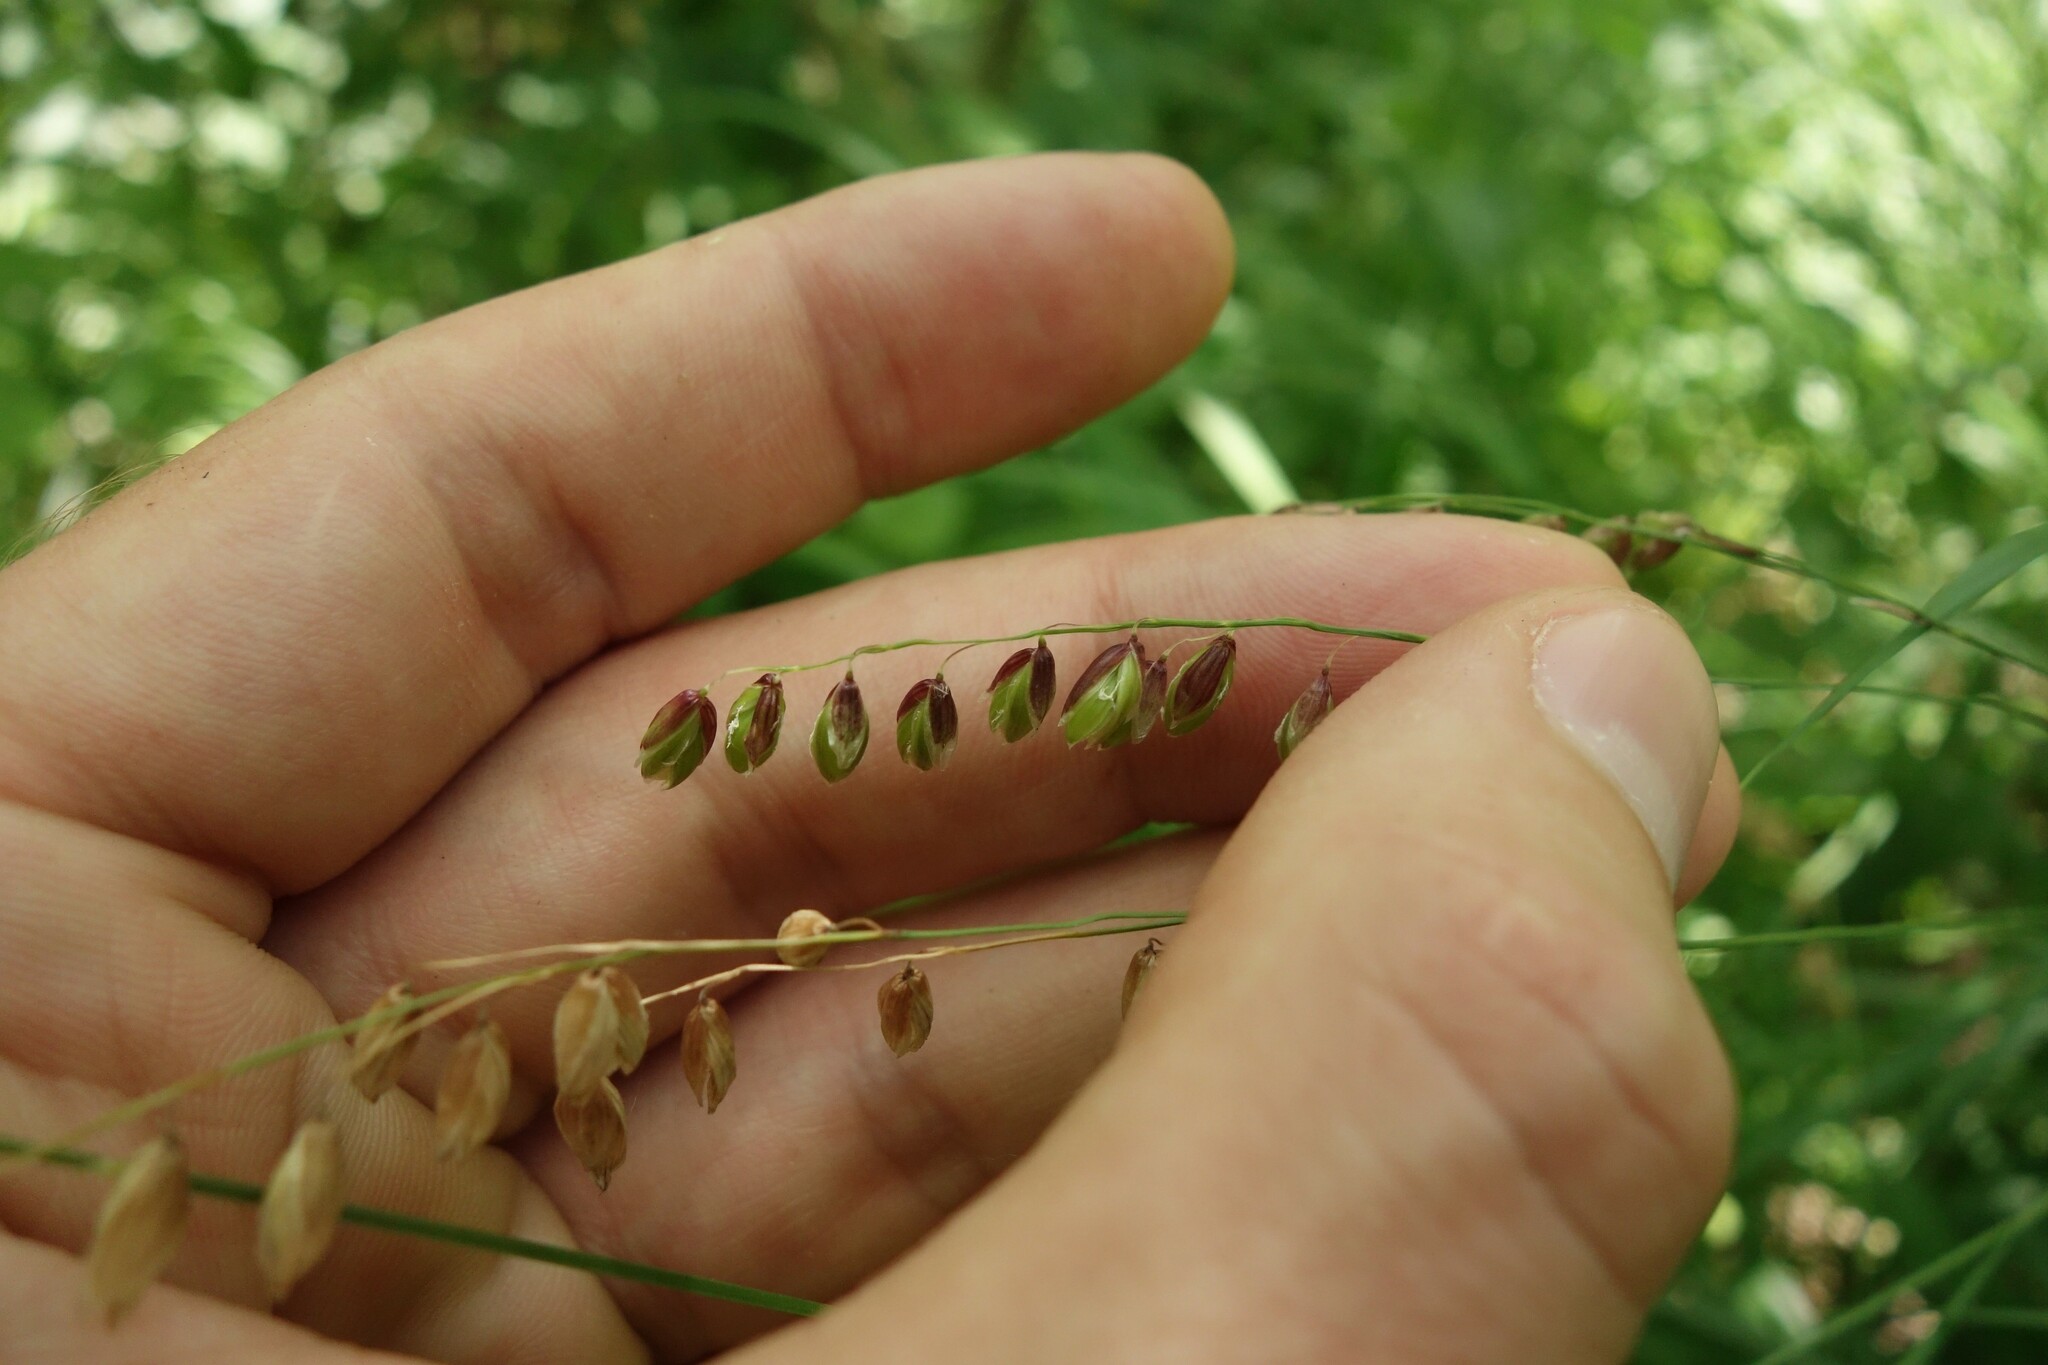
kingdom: Plantae
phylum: Tracheophyta
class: Liliopsida
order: Poales
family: Poaceae
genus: Melica
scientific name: Melica nutans
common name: Mountain melick
